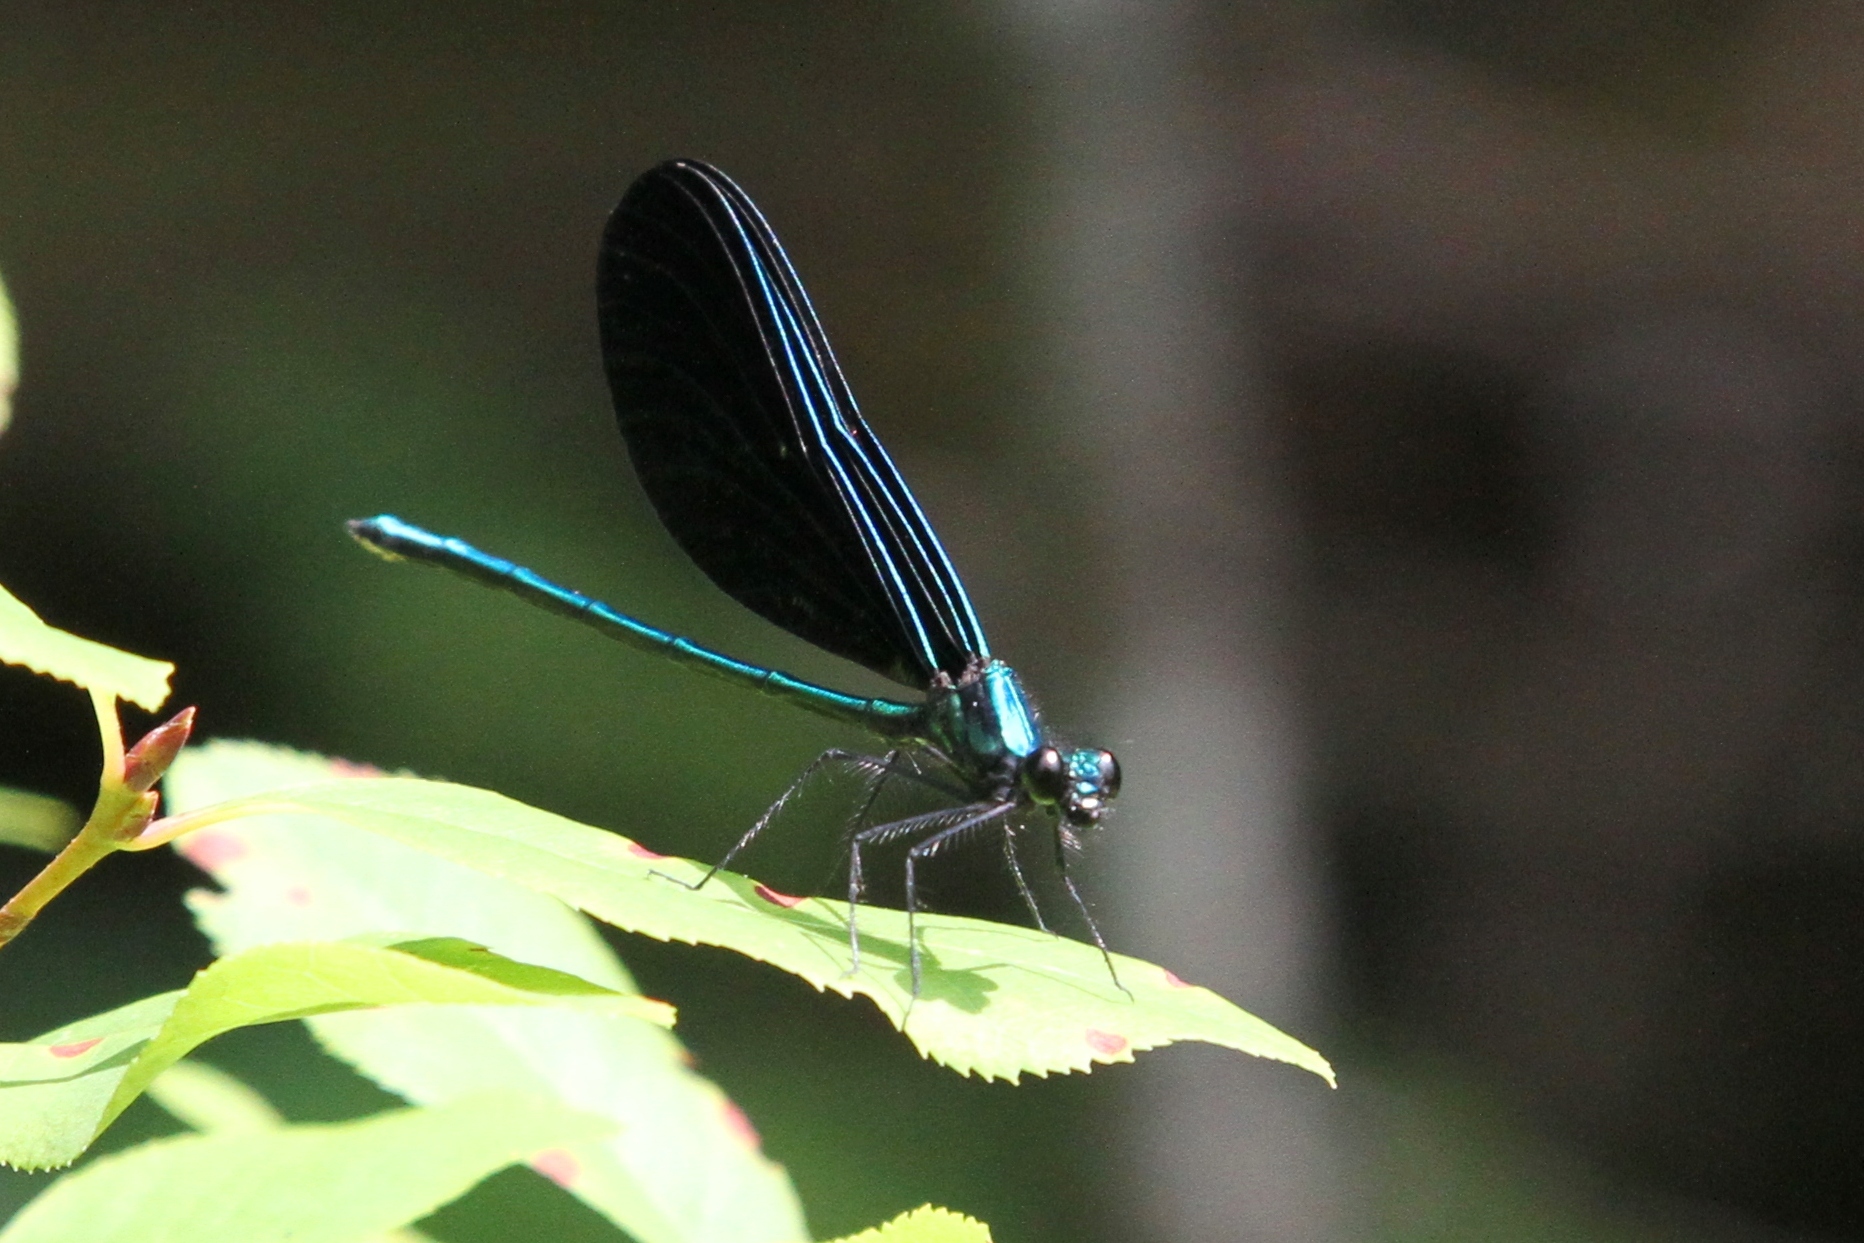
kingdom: Animalia
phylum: Arthropoda
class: Insecta
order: Odonata
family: Calopterygidae
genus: Calopteryx
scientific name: Calopteryx maculata
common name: Ebony jewelwing
